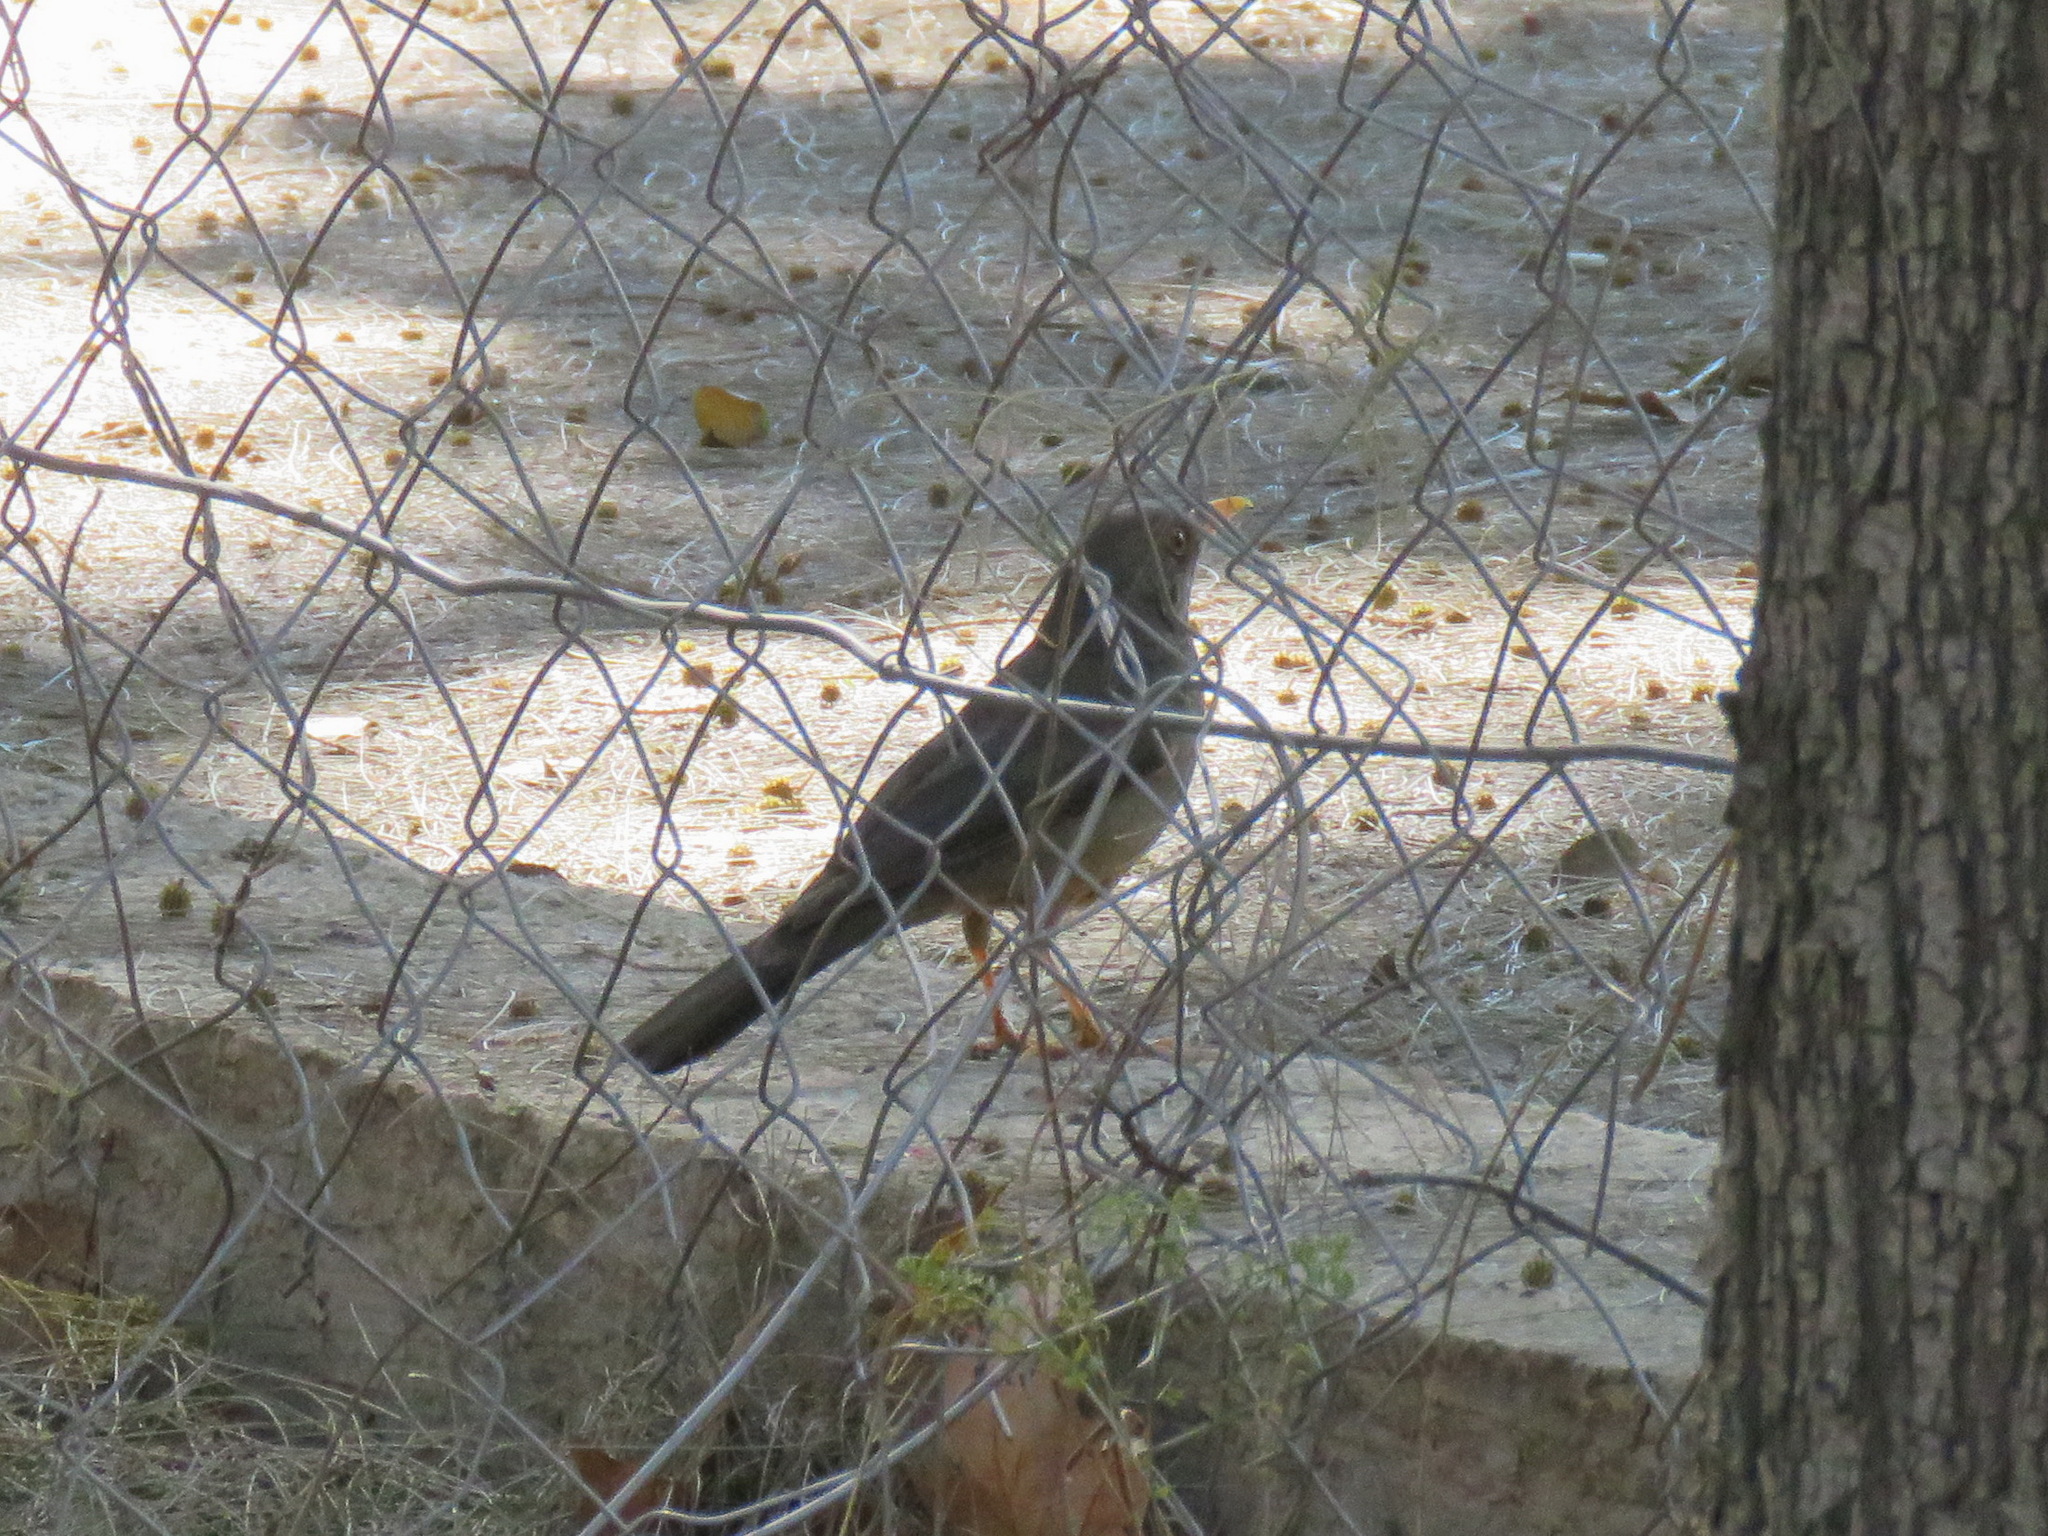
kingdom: Animalia
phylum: Chordata
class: Aves
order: Passeriformes
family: Turdidae
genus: Turdus
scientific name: Turdus smithi
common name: Karoo thrush
